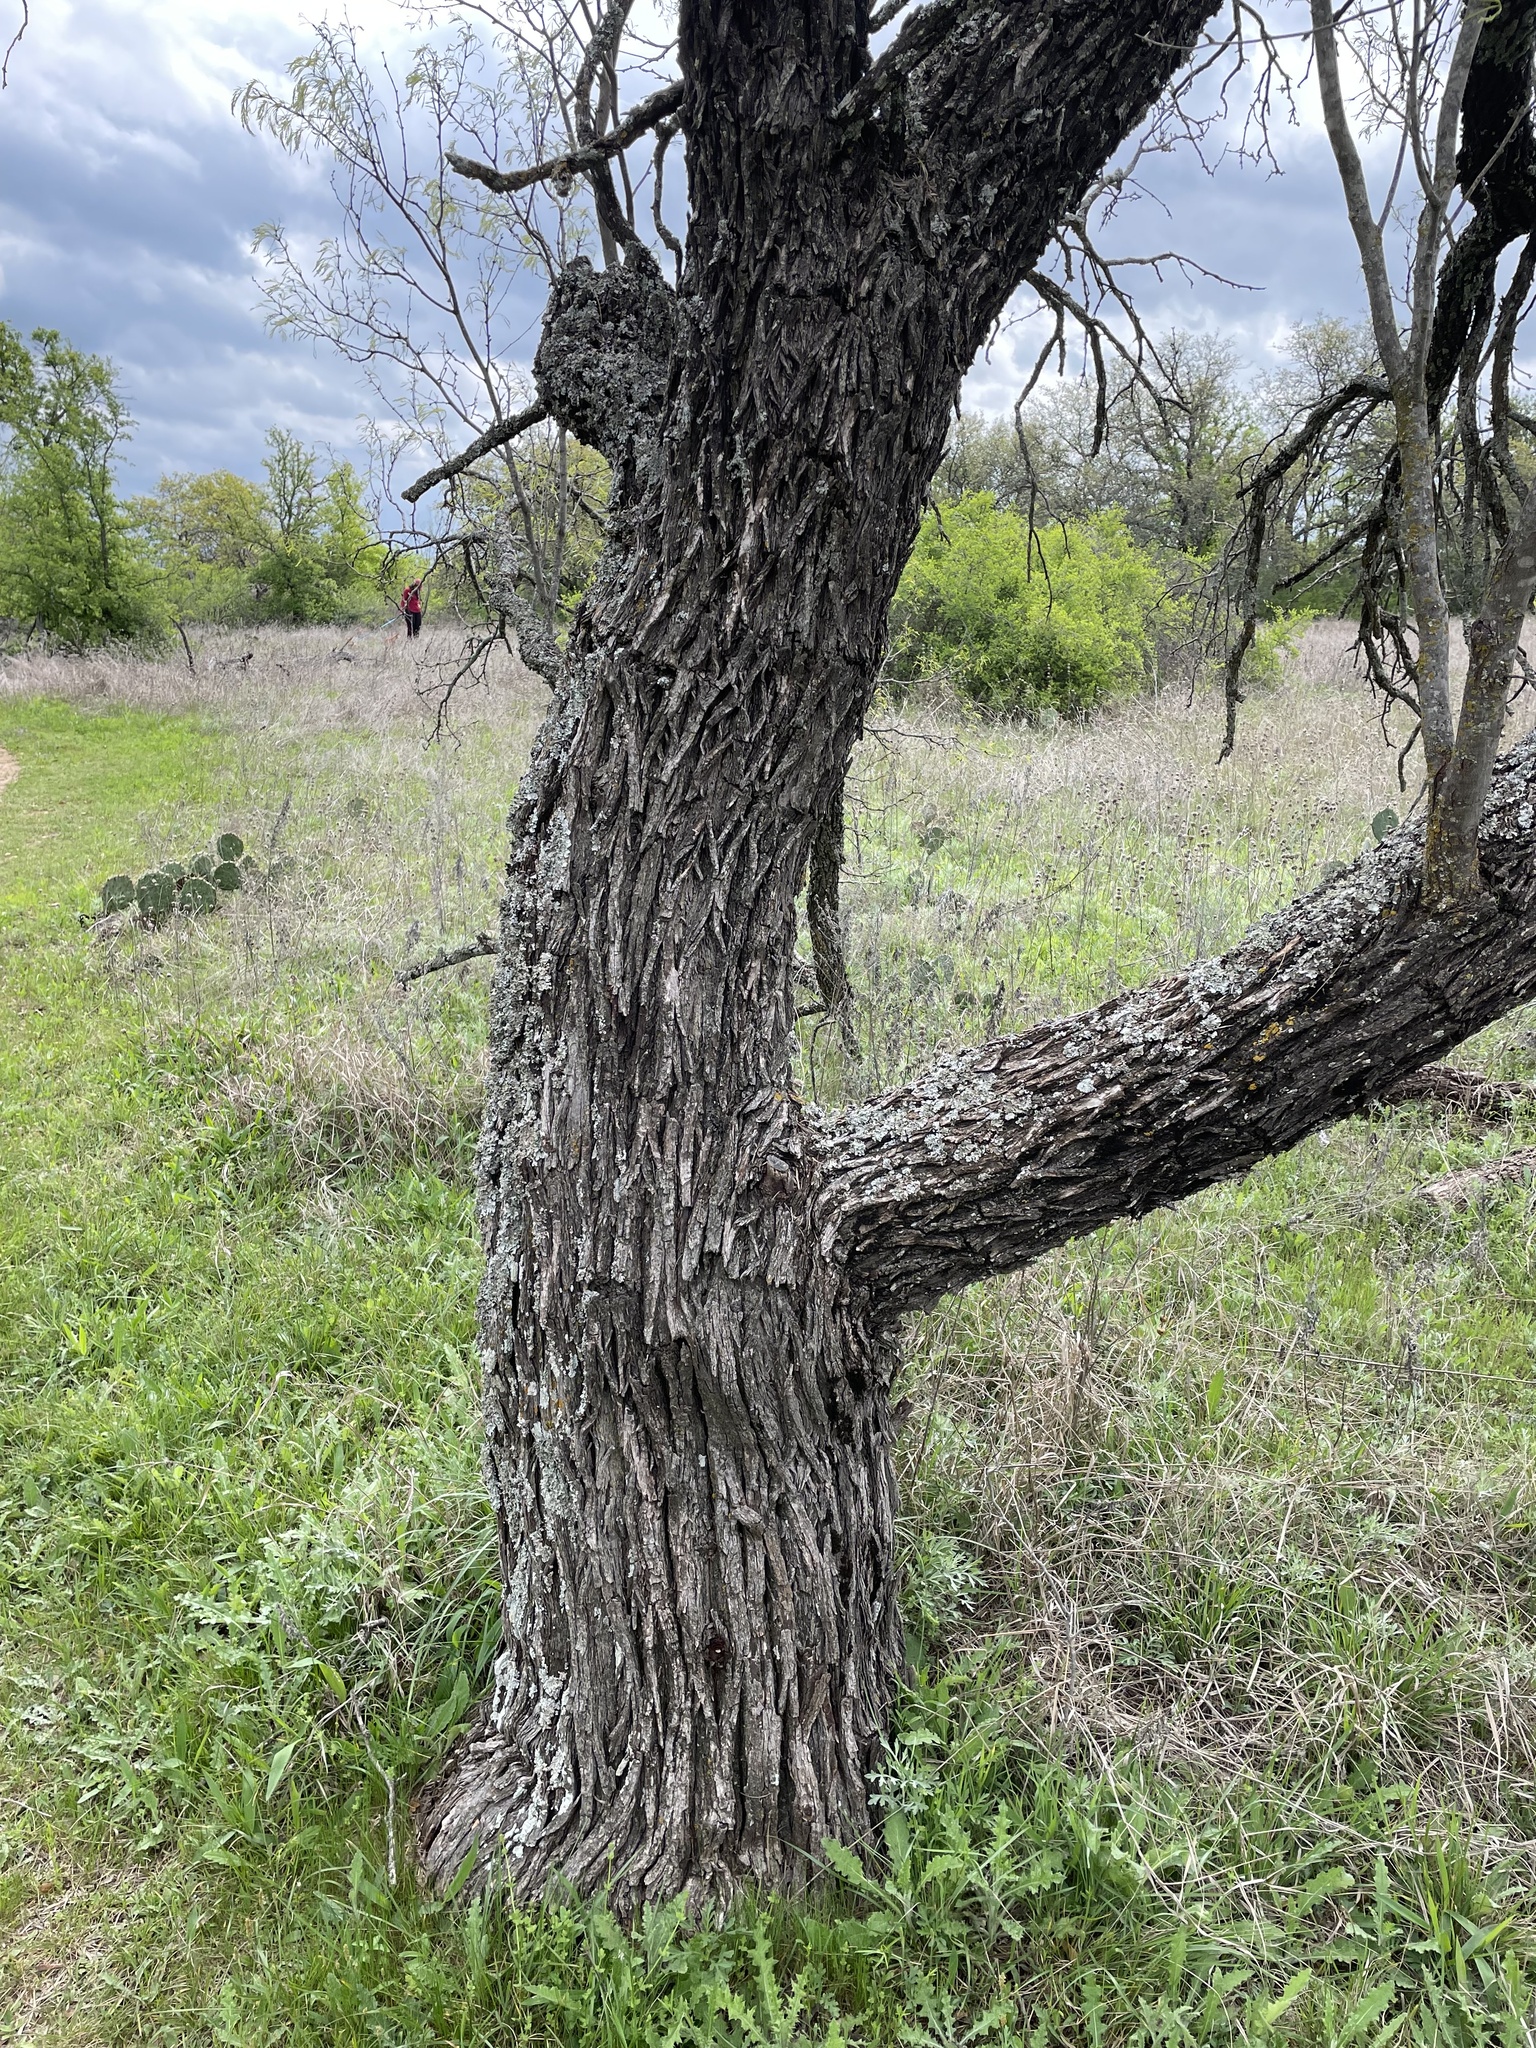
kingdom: Plantae
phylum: Tracheophyta
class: Magnoliopsida
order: Fabales
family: Fabaceae
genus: Prosopis
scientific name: Prosopis glandulosa
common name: Honey mesquite
